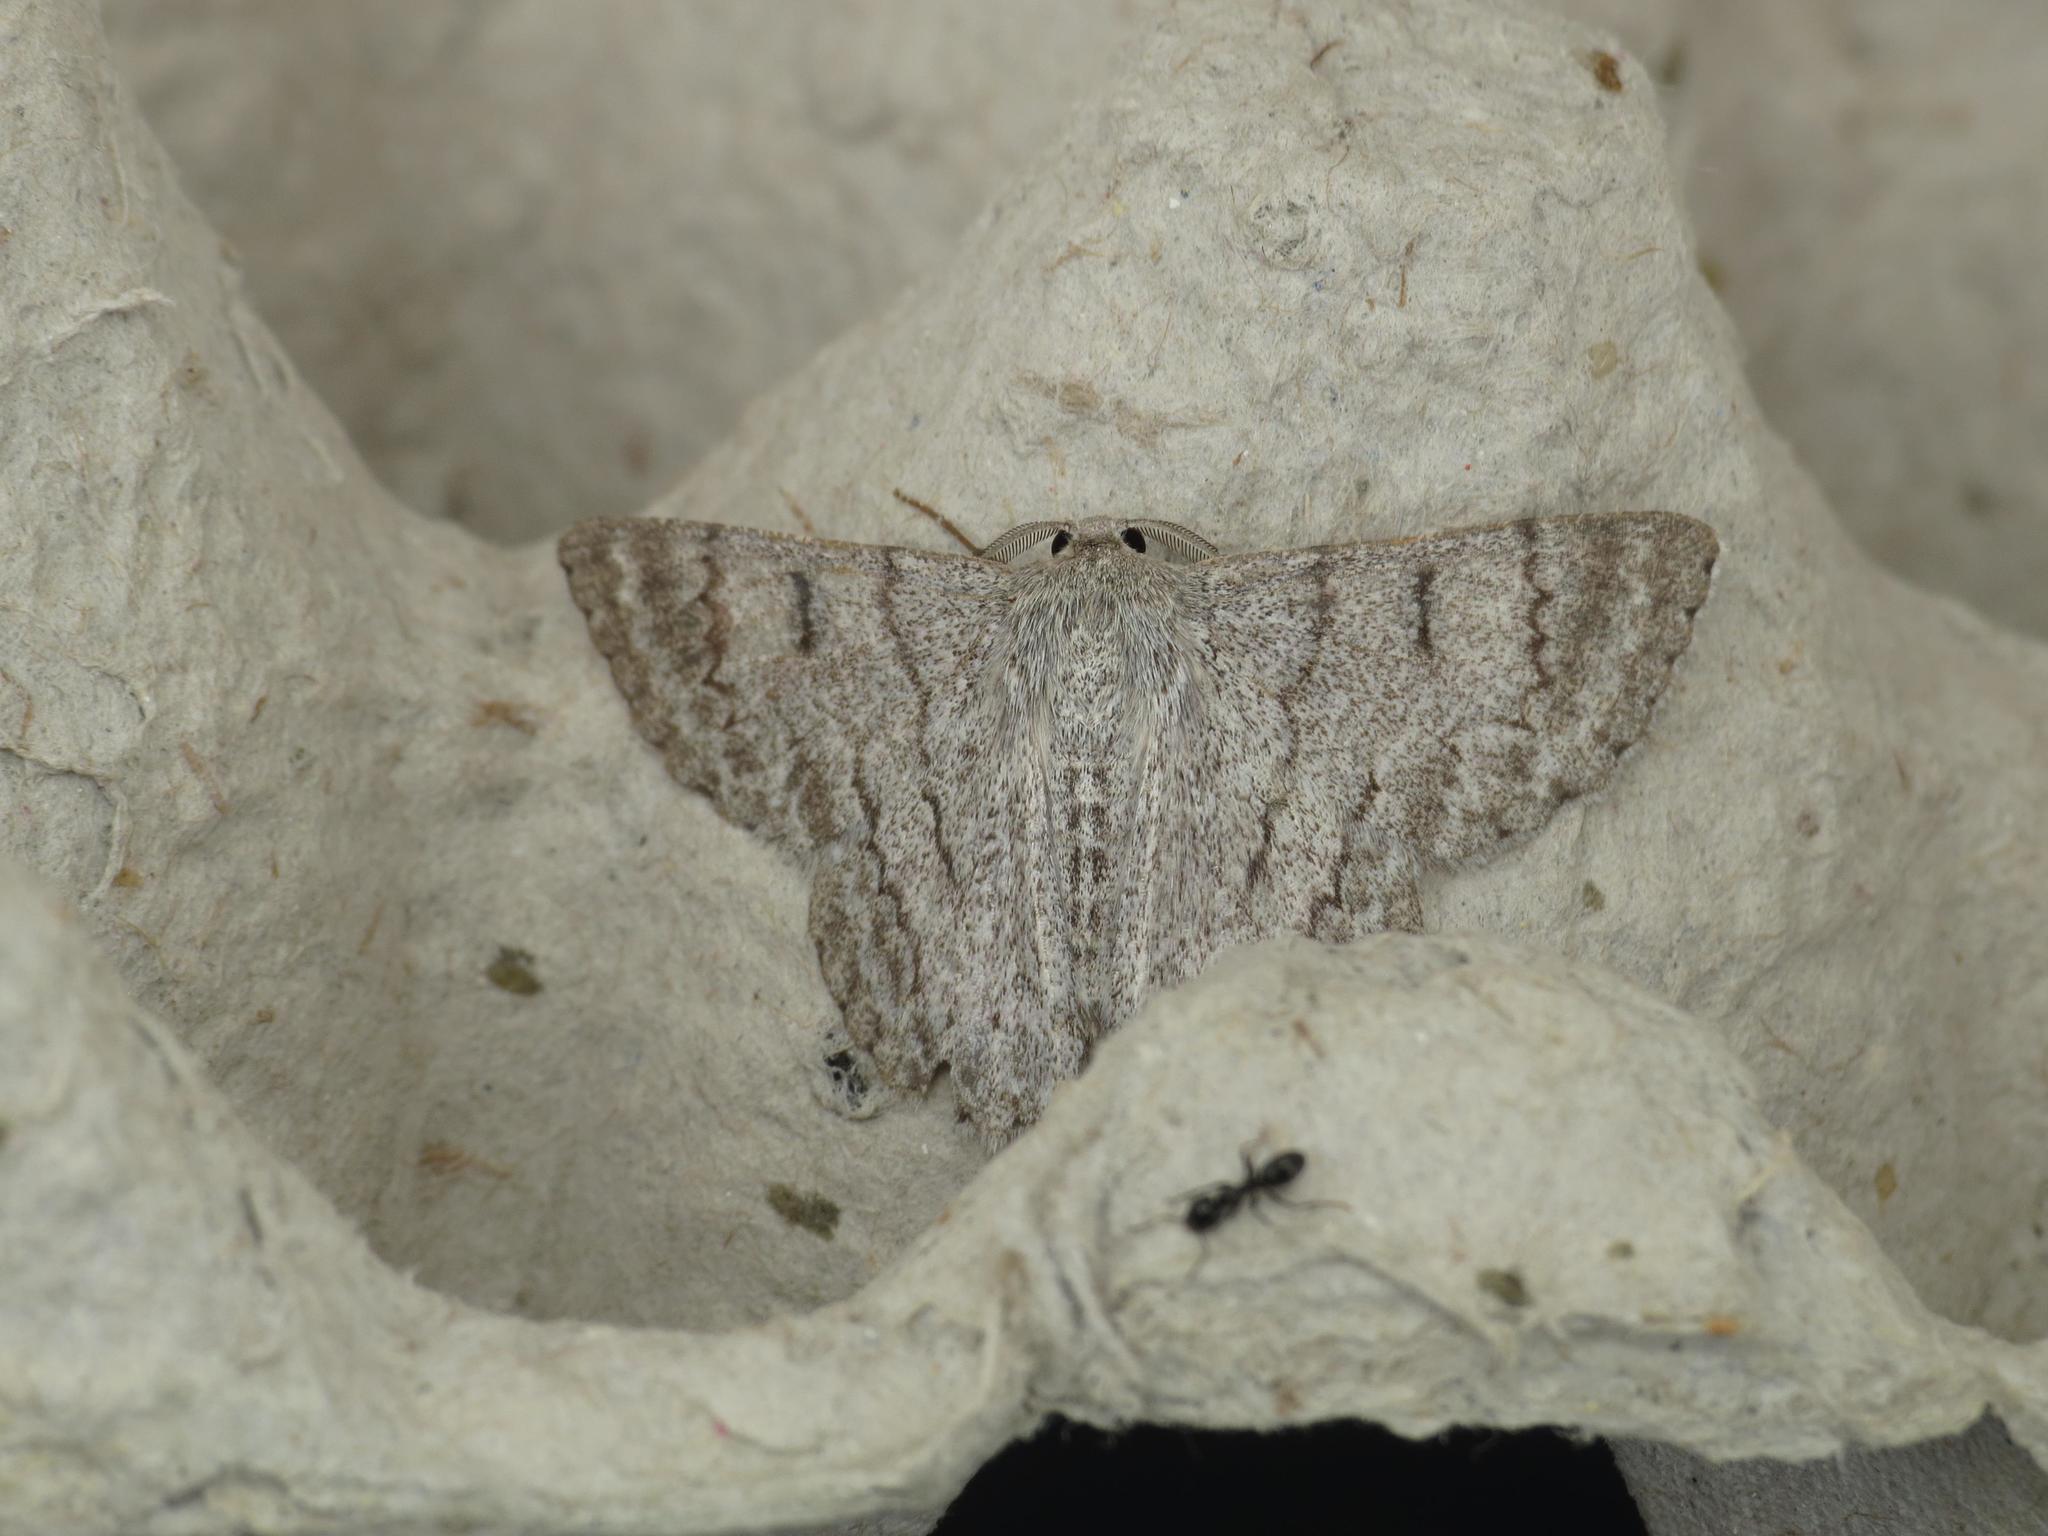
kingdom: Animalia
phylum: Arthropoda
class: Insecta
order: Lepidoptera
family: Geometridae
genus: Crypsiphona
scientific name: Crypsiphona ocultaria
